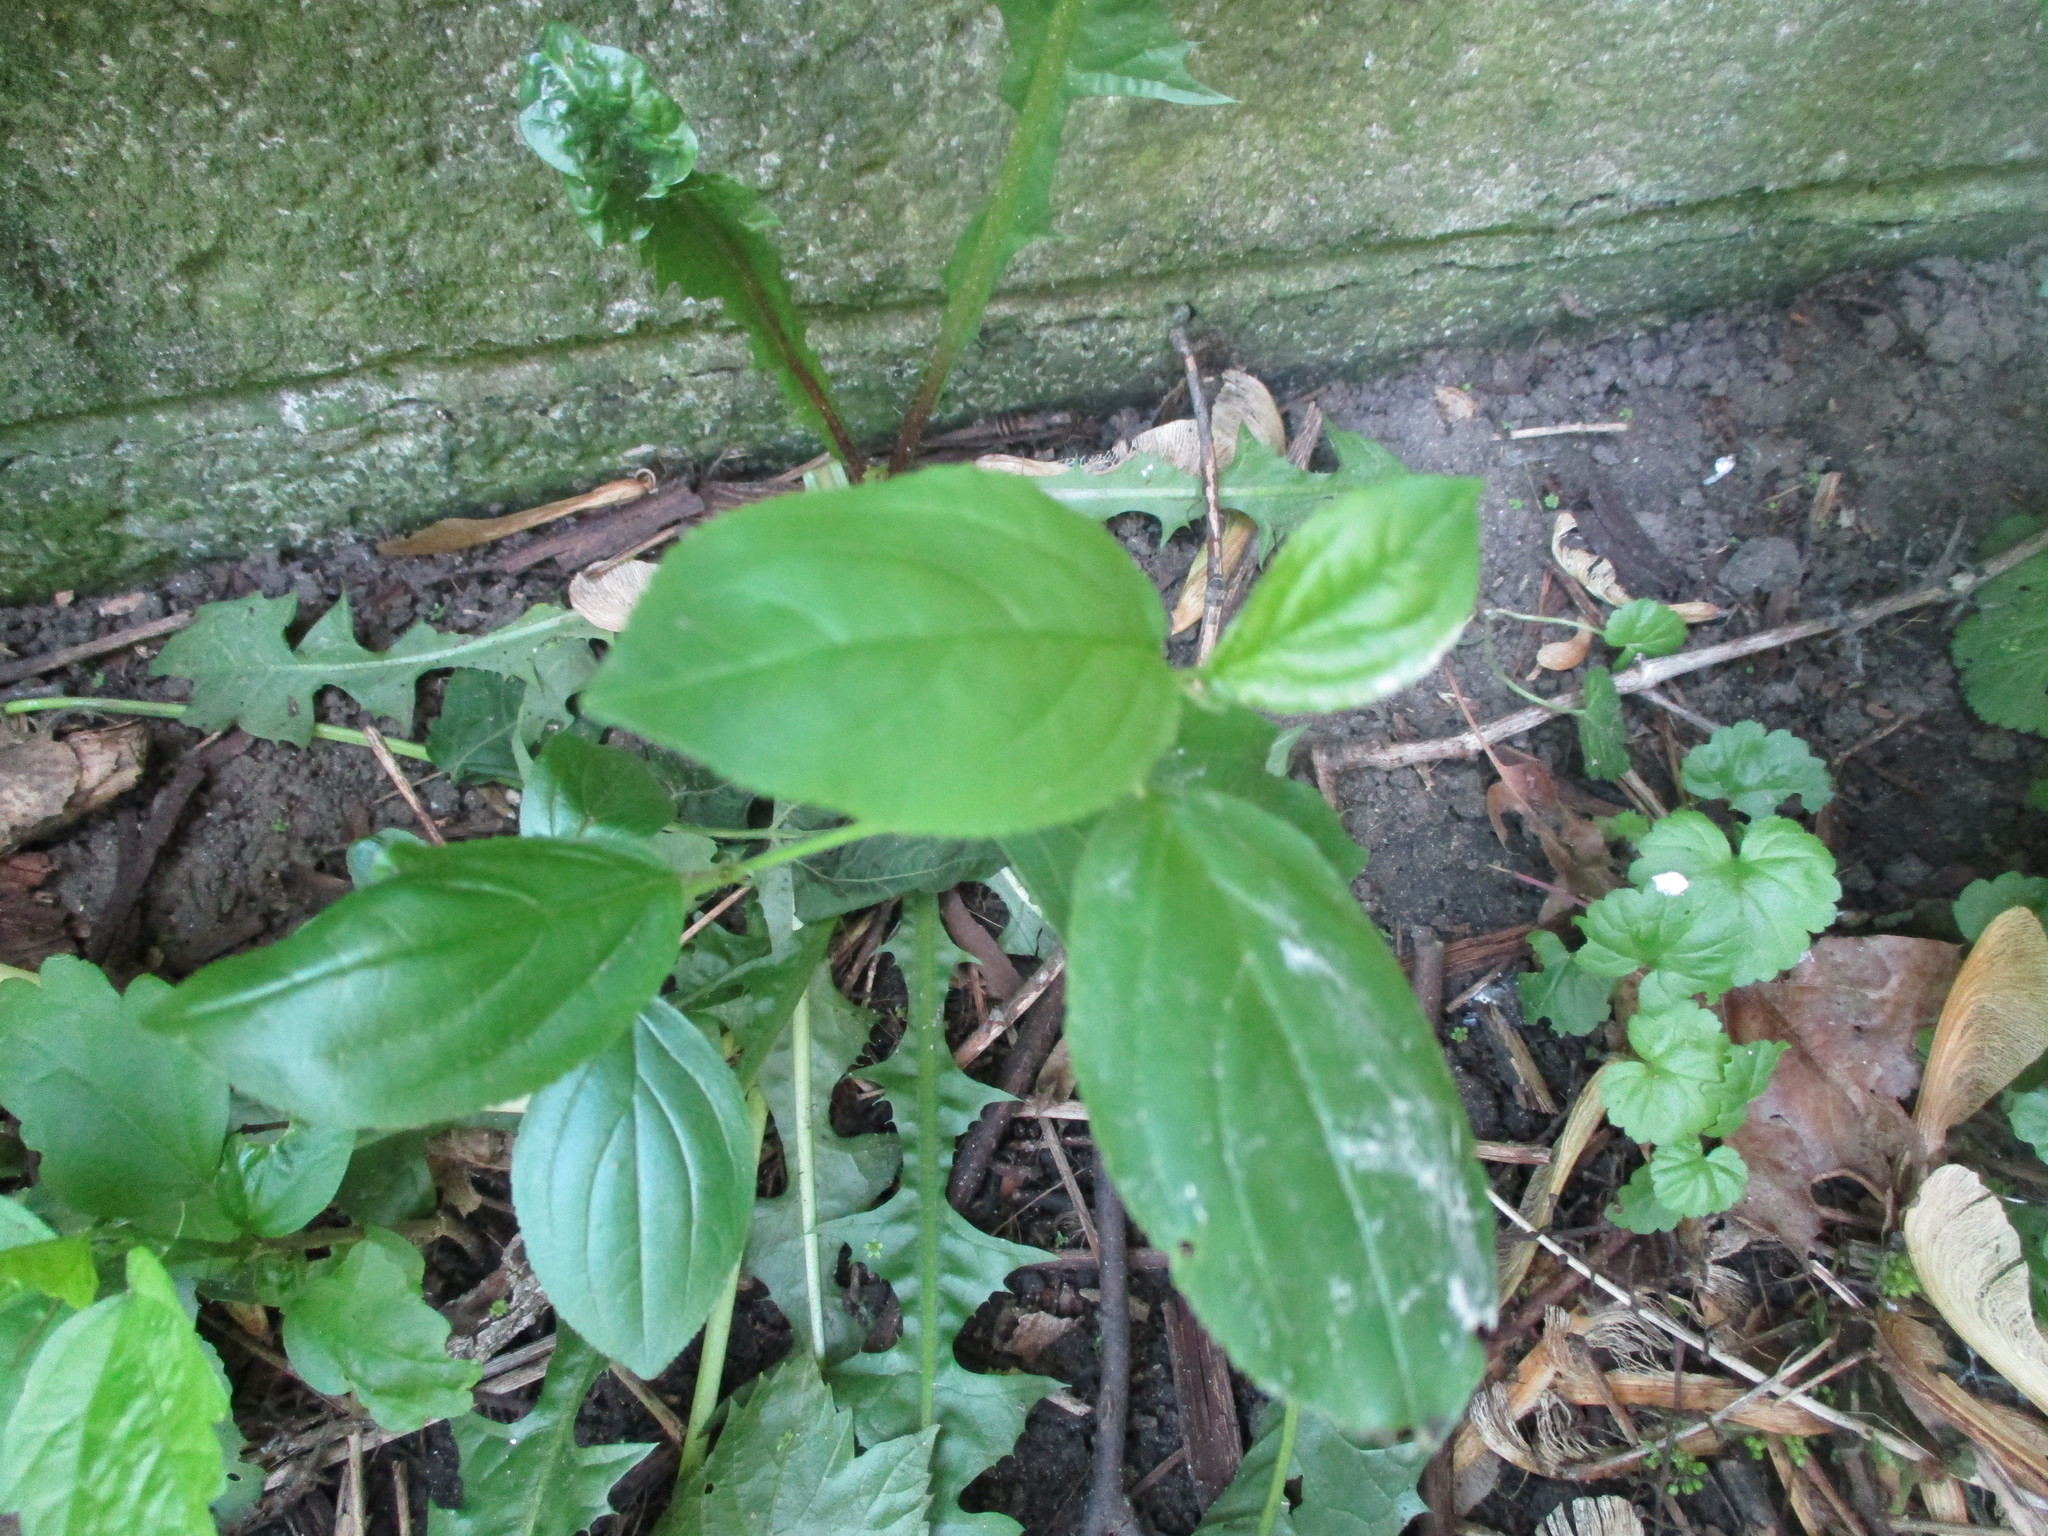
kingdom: Plantae
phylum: Tracheophyta
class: Magnoliopsida
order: Rosales
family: Rhamnaceae
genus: Rhamnus
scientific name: Rhamnus cathartica
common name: Common buckthorn
